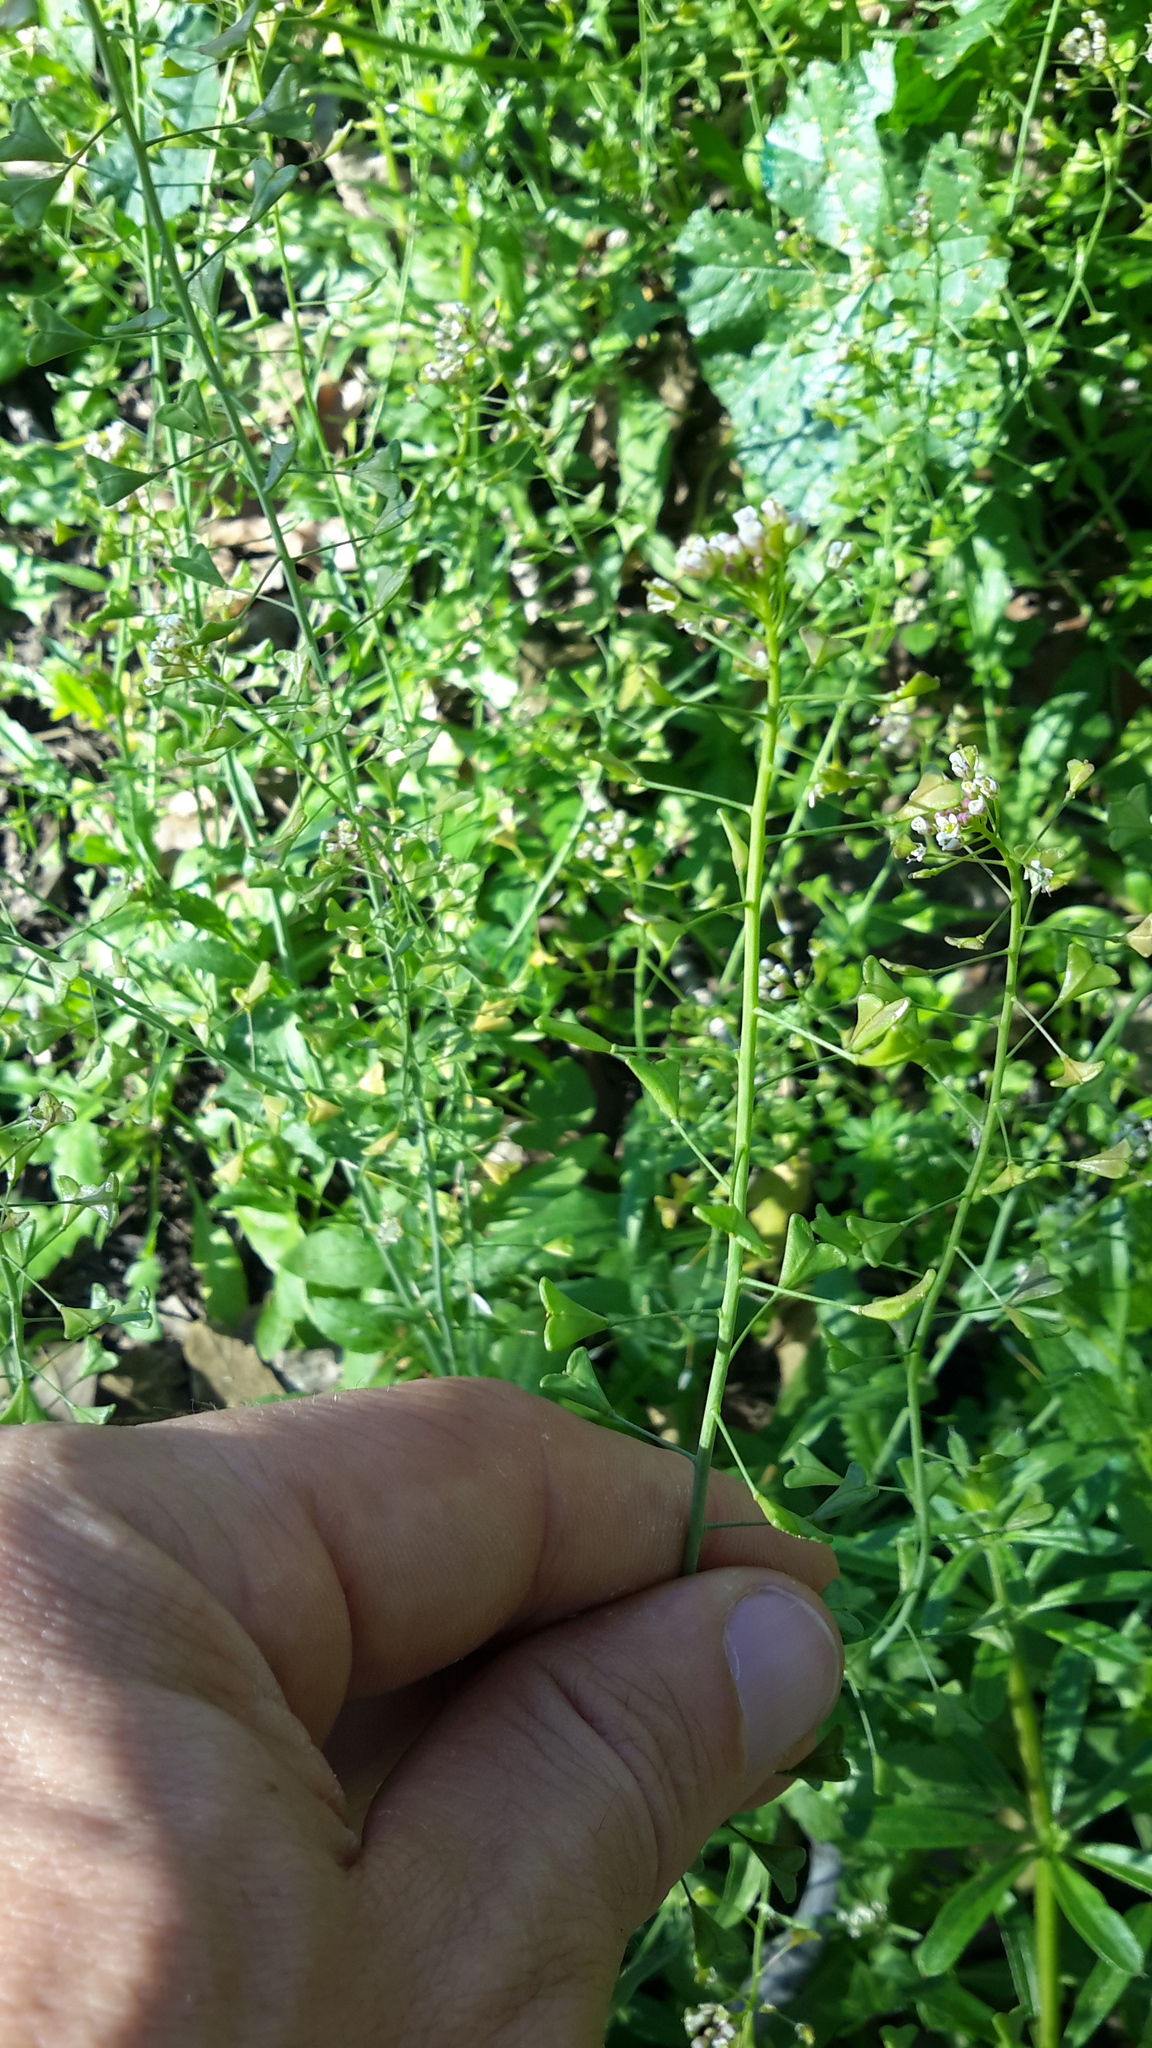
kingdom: Plantae
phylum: Tracheophyta
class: Magnoliopsida
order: Brassicales
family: Brassicaceae
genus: Capsella
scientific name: Capsella bursa-pastoris
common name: Shepherd's purse
